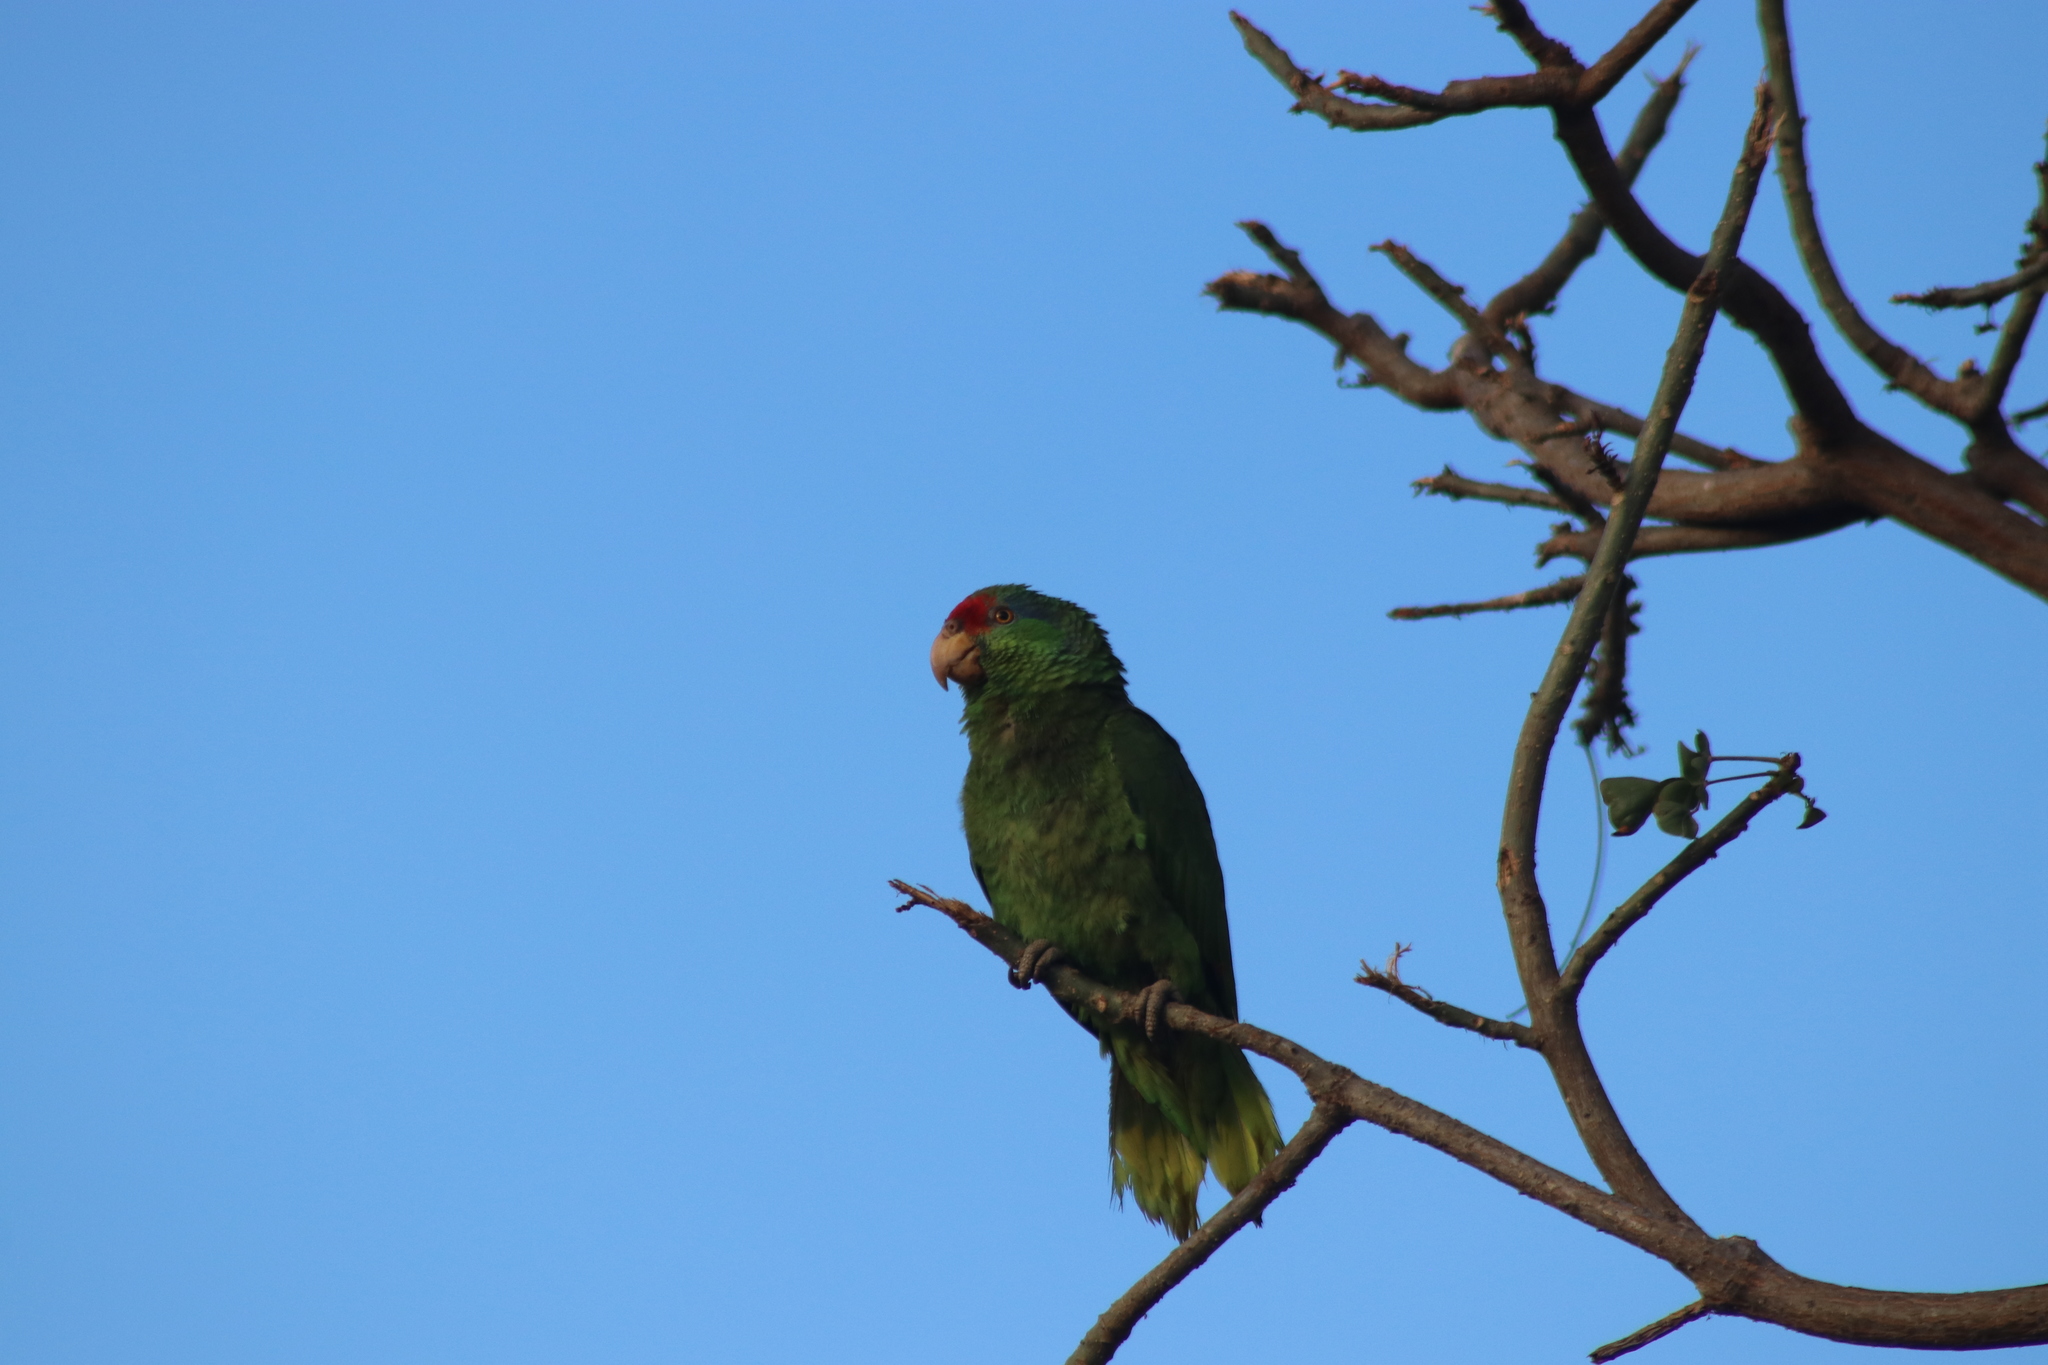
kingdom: Animalia
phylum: Chordata
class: Aves
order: Psittaciformes
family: Psittacidae
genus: Amazona
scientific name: Amazona viridigenalis
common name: Red-crowned amazon
